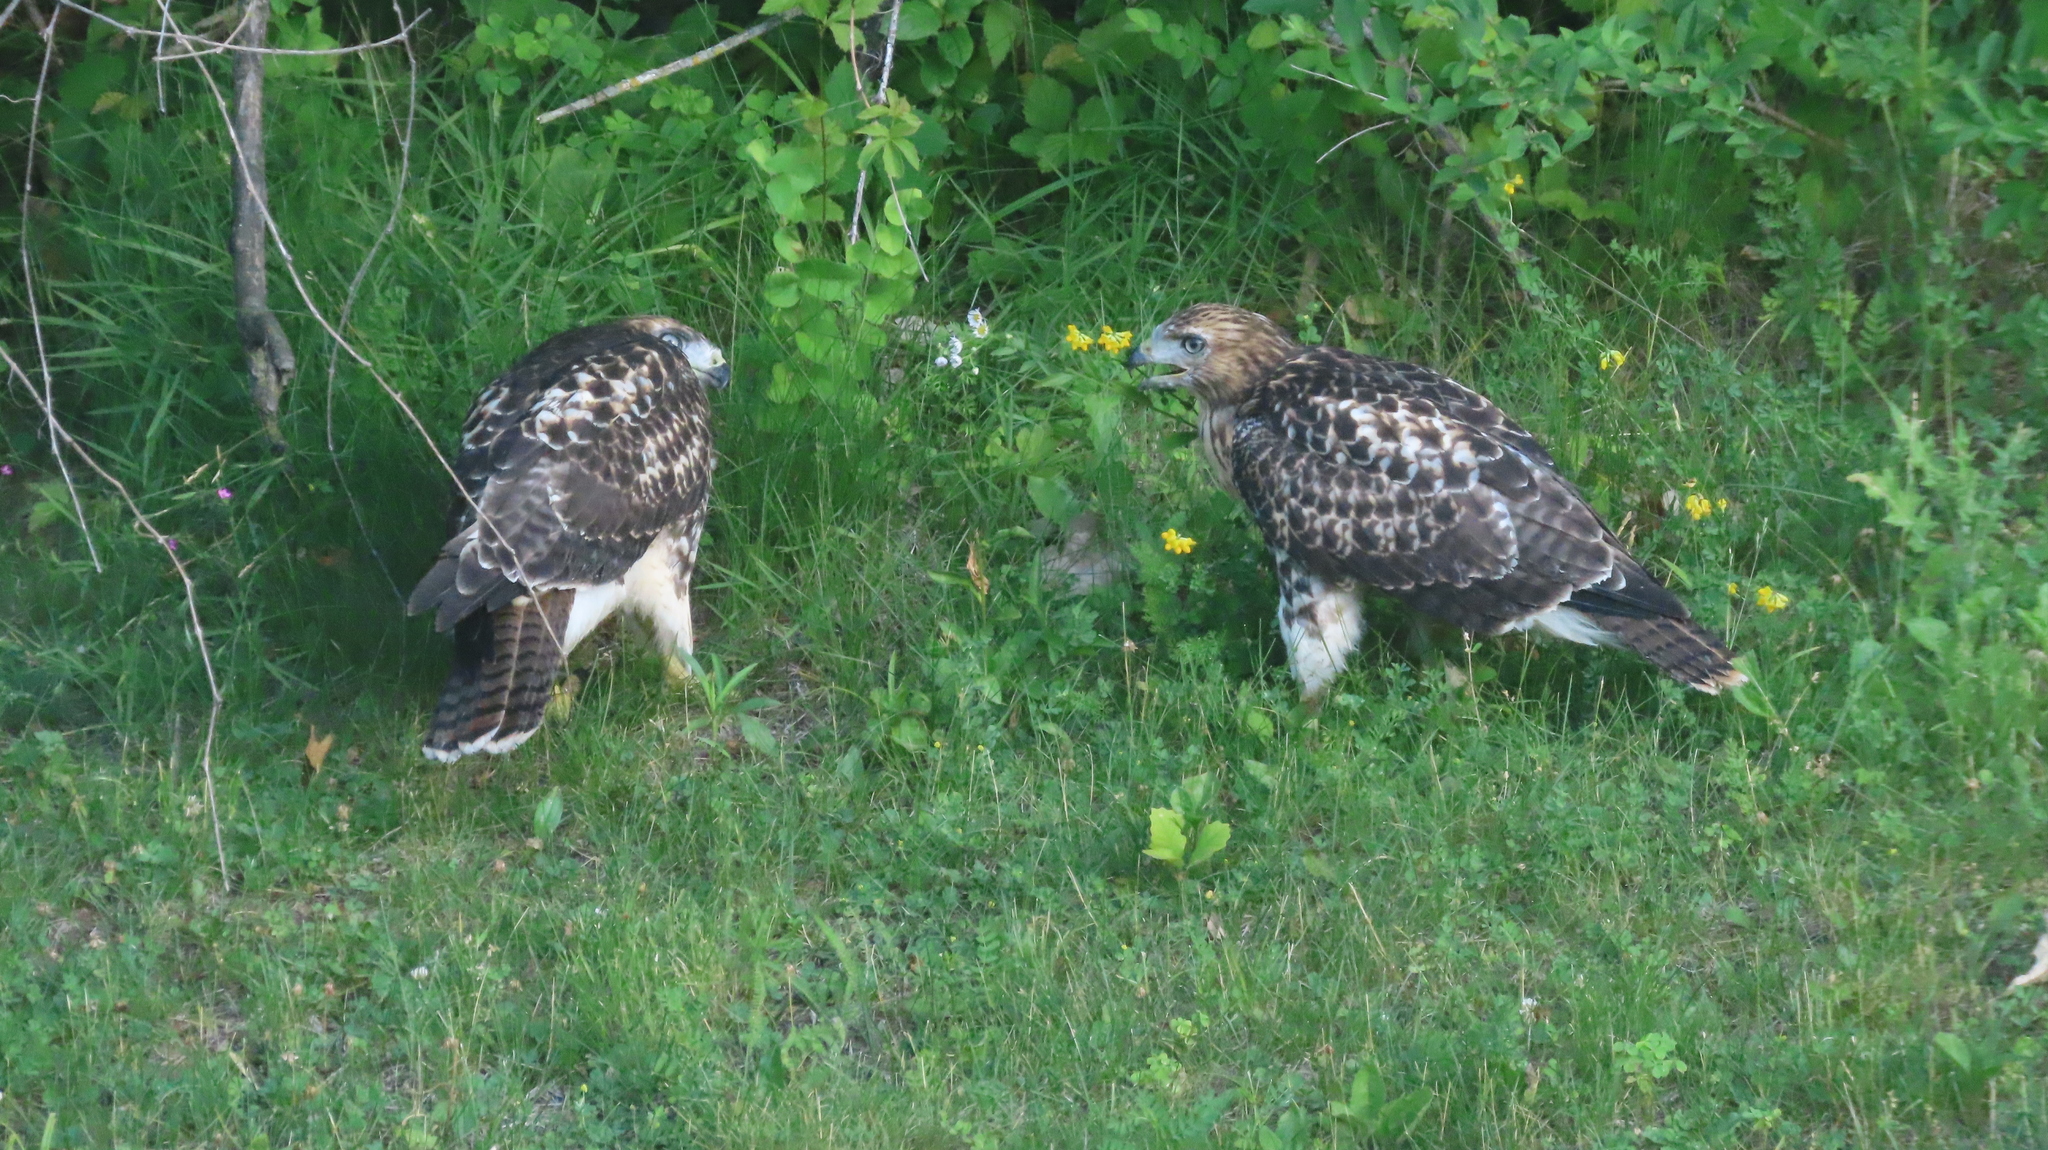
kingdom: Animalia
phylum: Chordata
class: Aves
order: Accipitriformes
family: Accipitridae
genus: Buteo
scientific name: Buteo jamaicensis
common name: Red-tailed hawk
